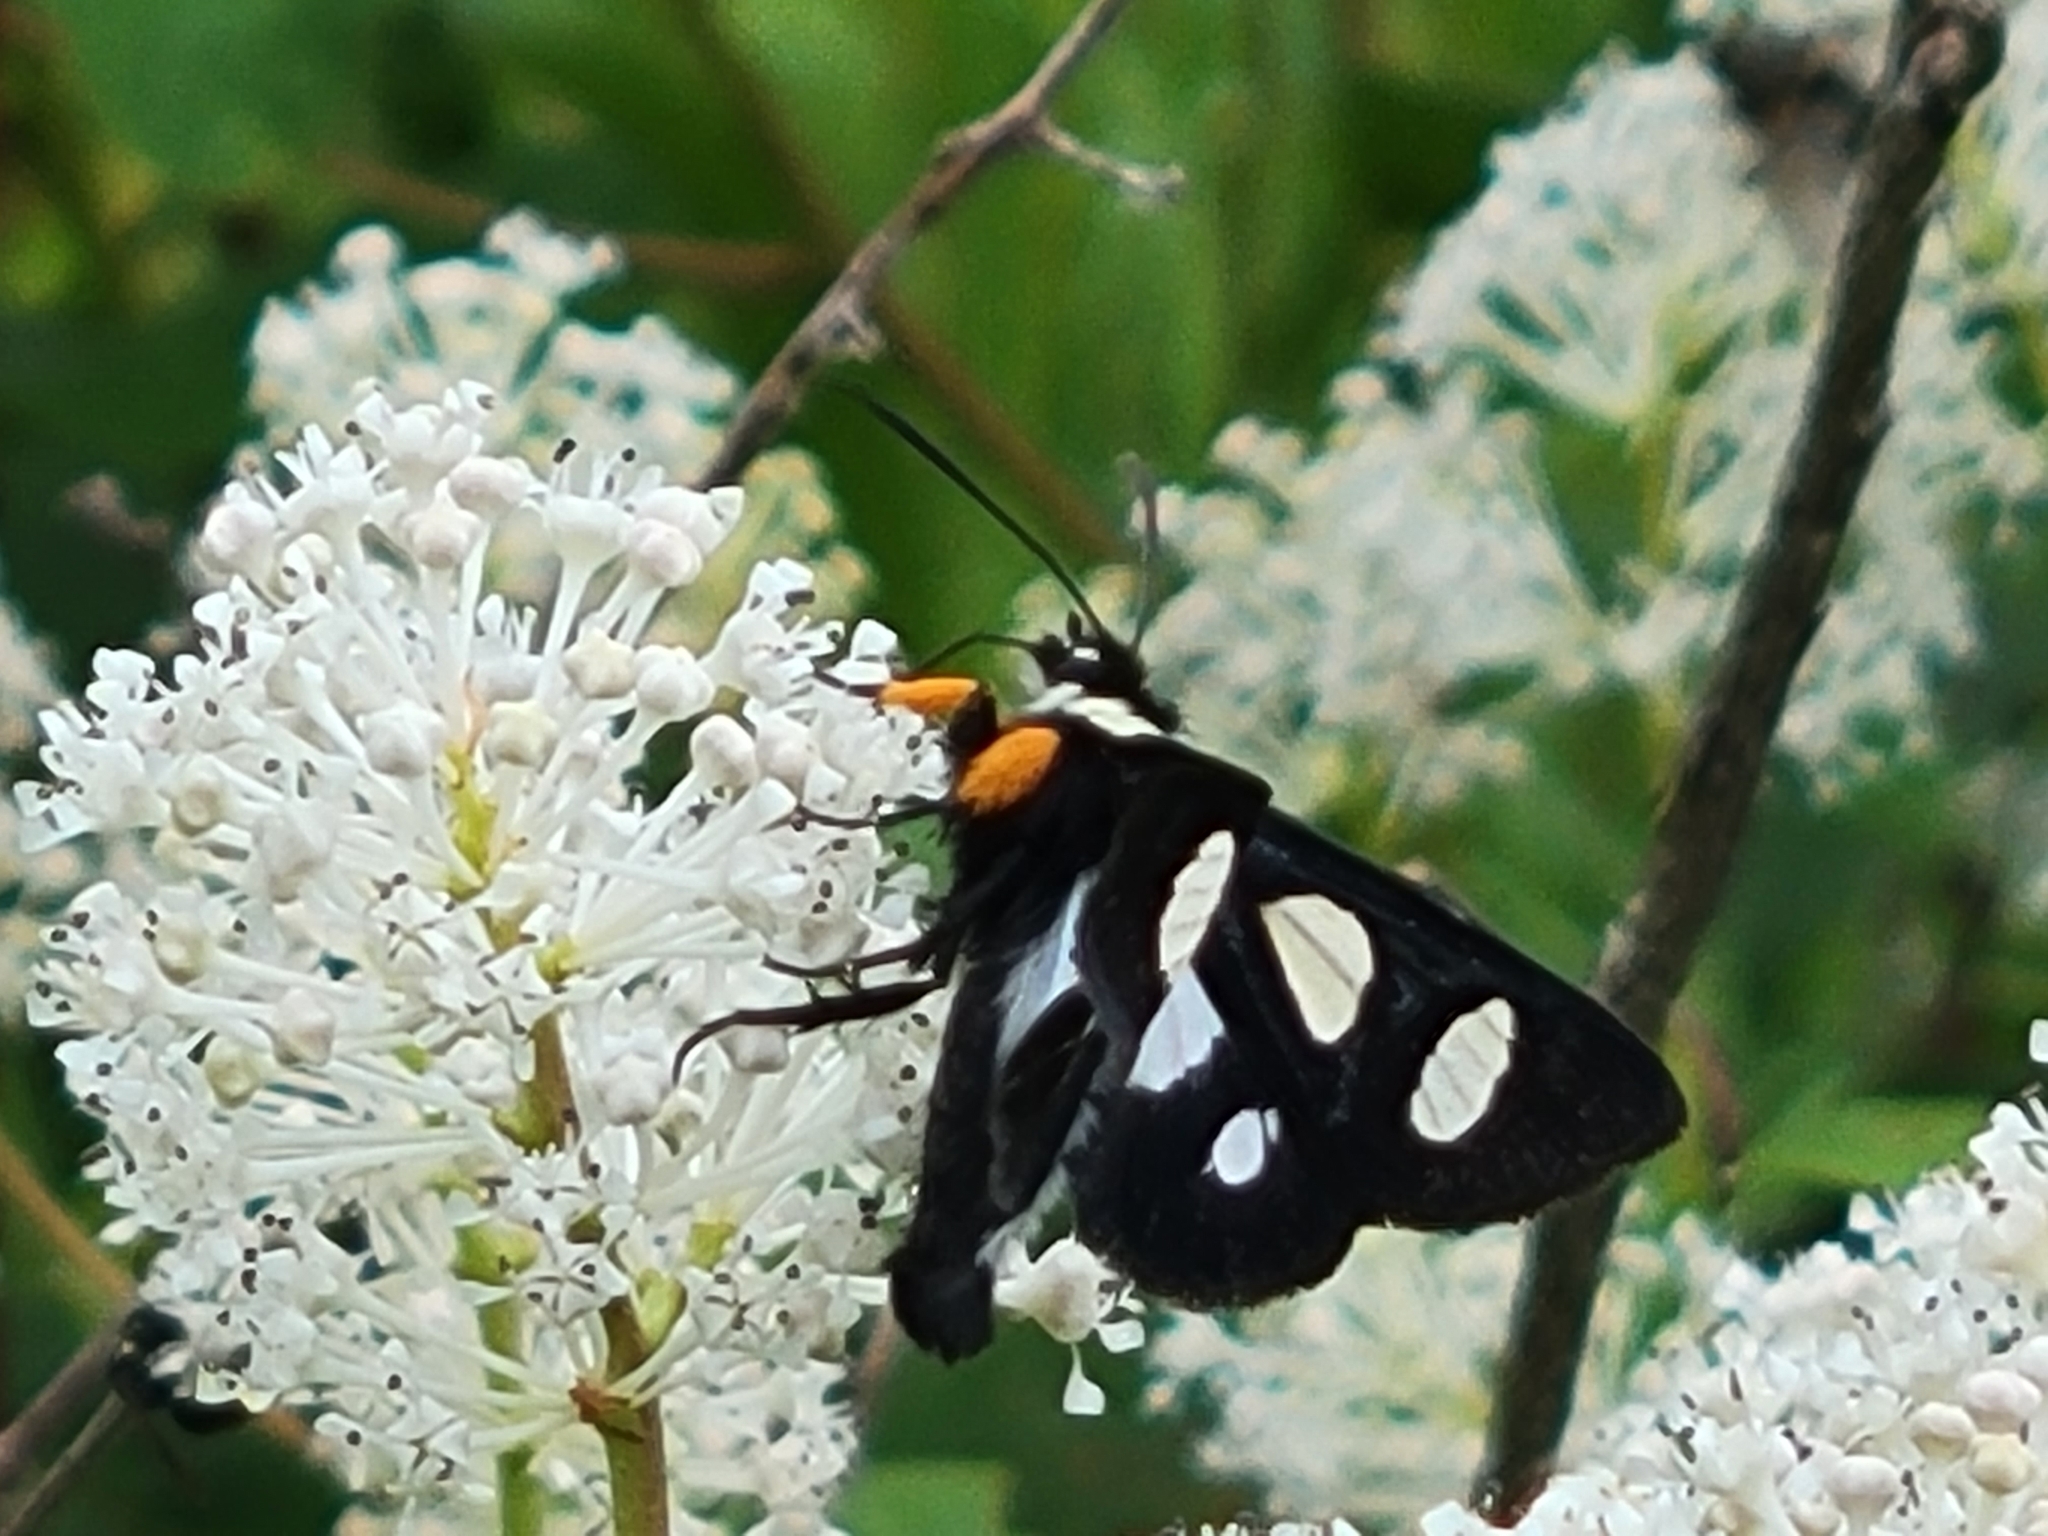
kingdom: Animalia
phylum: Arthropoda
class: Insecta
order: Lepidoptera
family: Noctuidae
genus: Alypia
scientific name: Alypia octomaculata
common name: Eight-spotted forester
